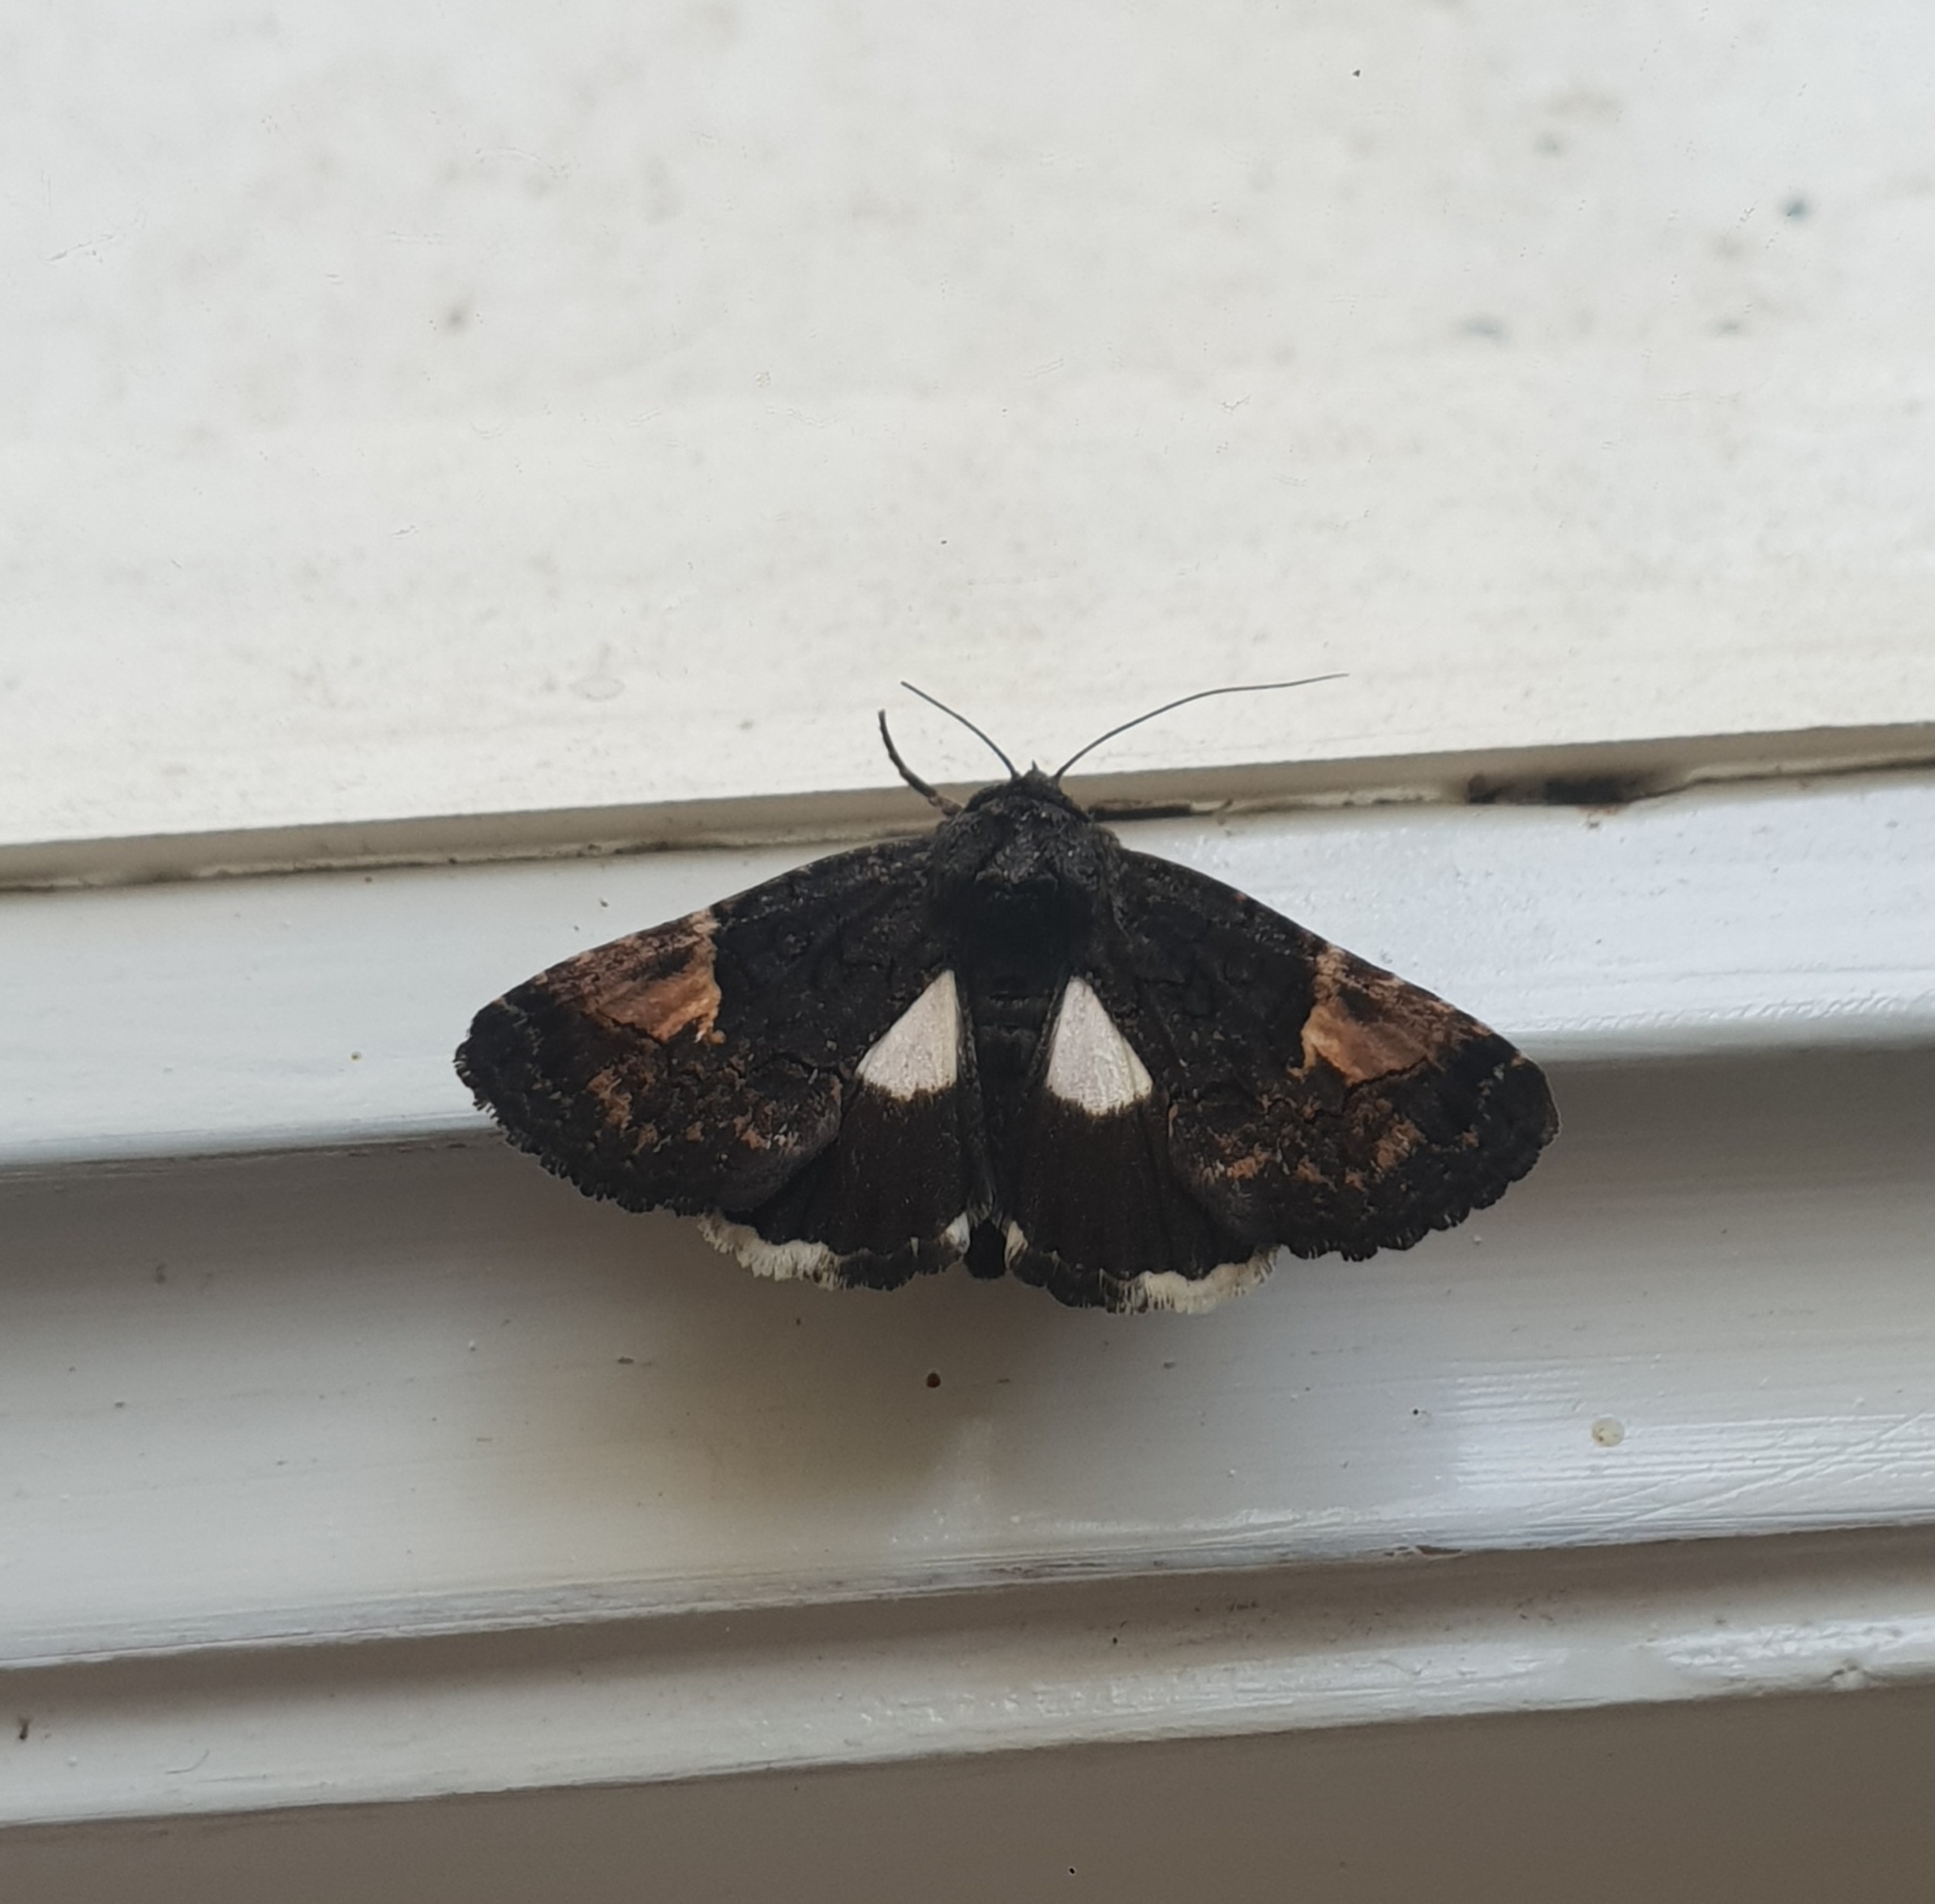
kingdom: Animalia
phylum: Arthropoda
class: Insecta
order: Lepidoptera
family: Noctuidae
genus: Aedia
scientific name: Aedia funesta
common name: The druid
